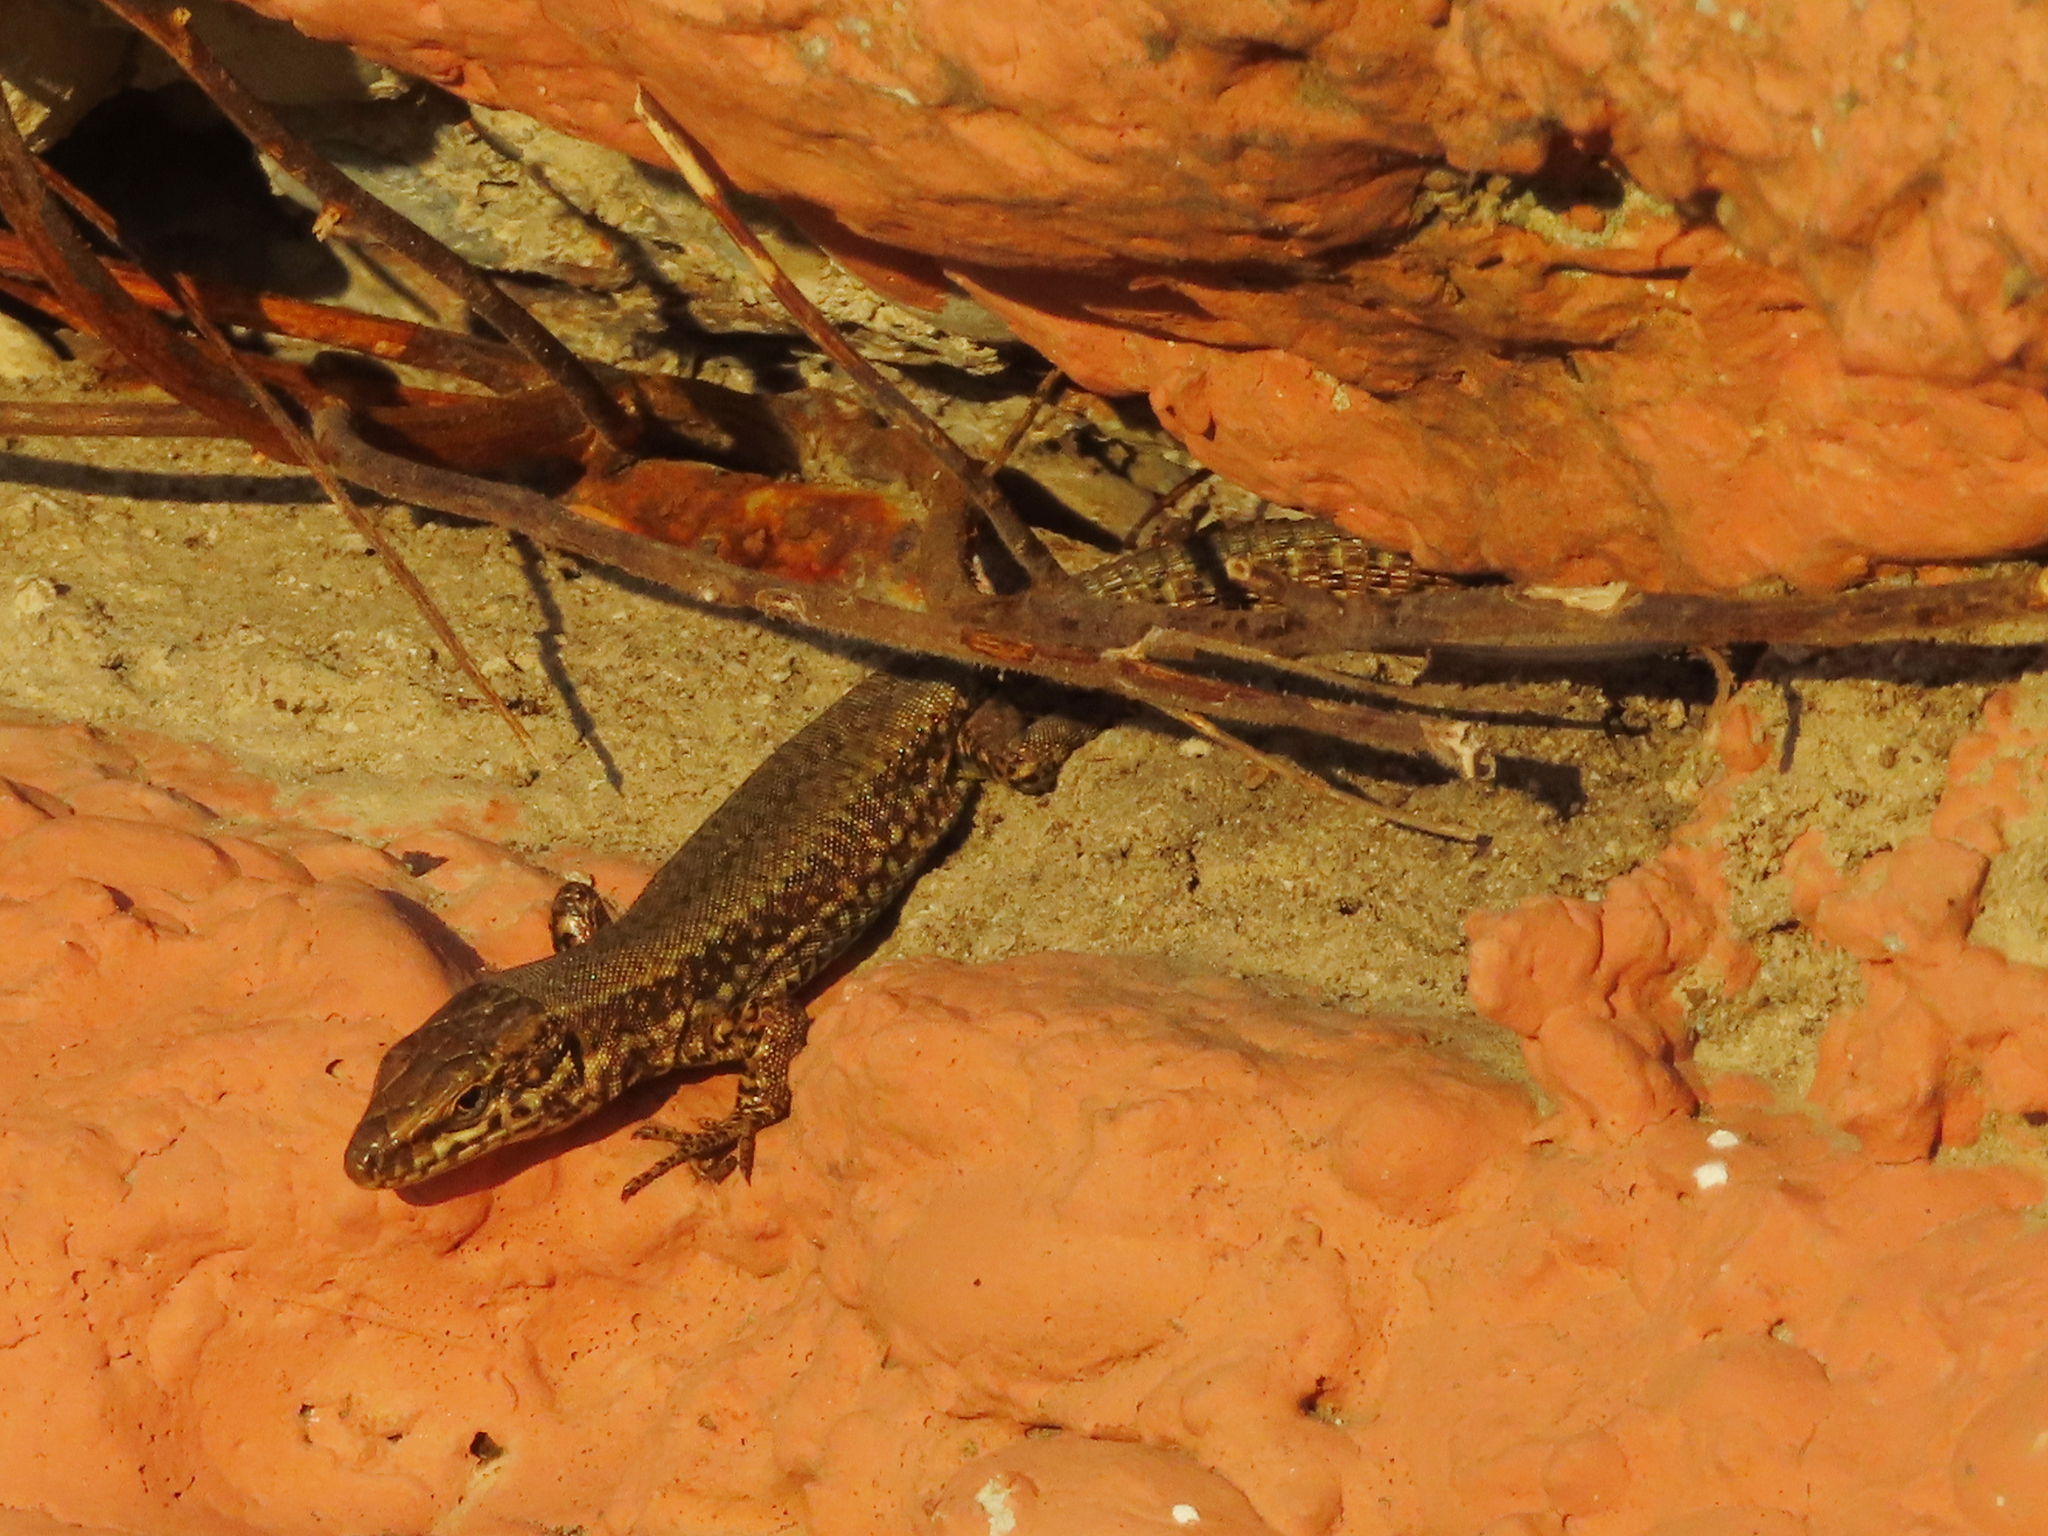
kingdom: Animalia
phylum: Chordata
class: Squamata
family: Lacertidae
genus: Podarcis
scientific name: Podarcis muralis
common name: Common wall lizard
